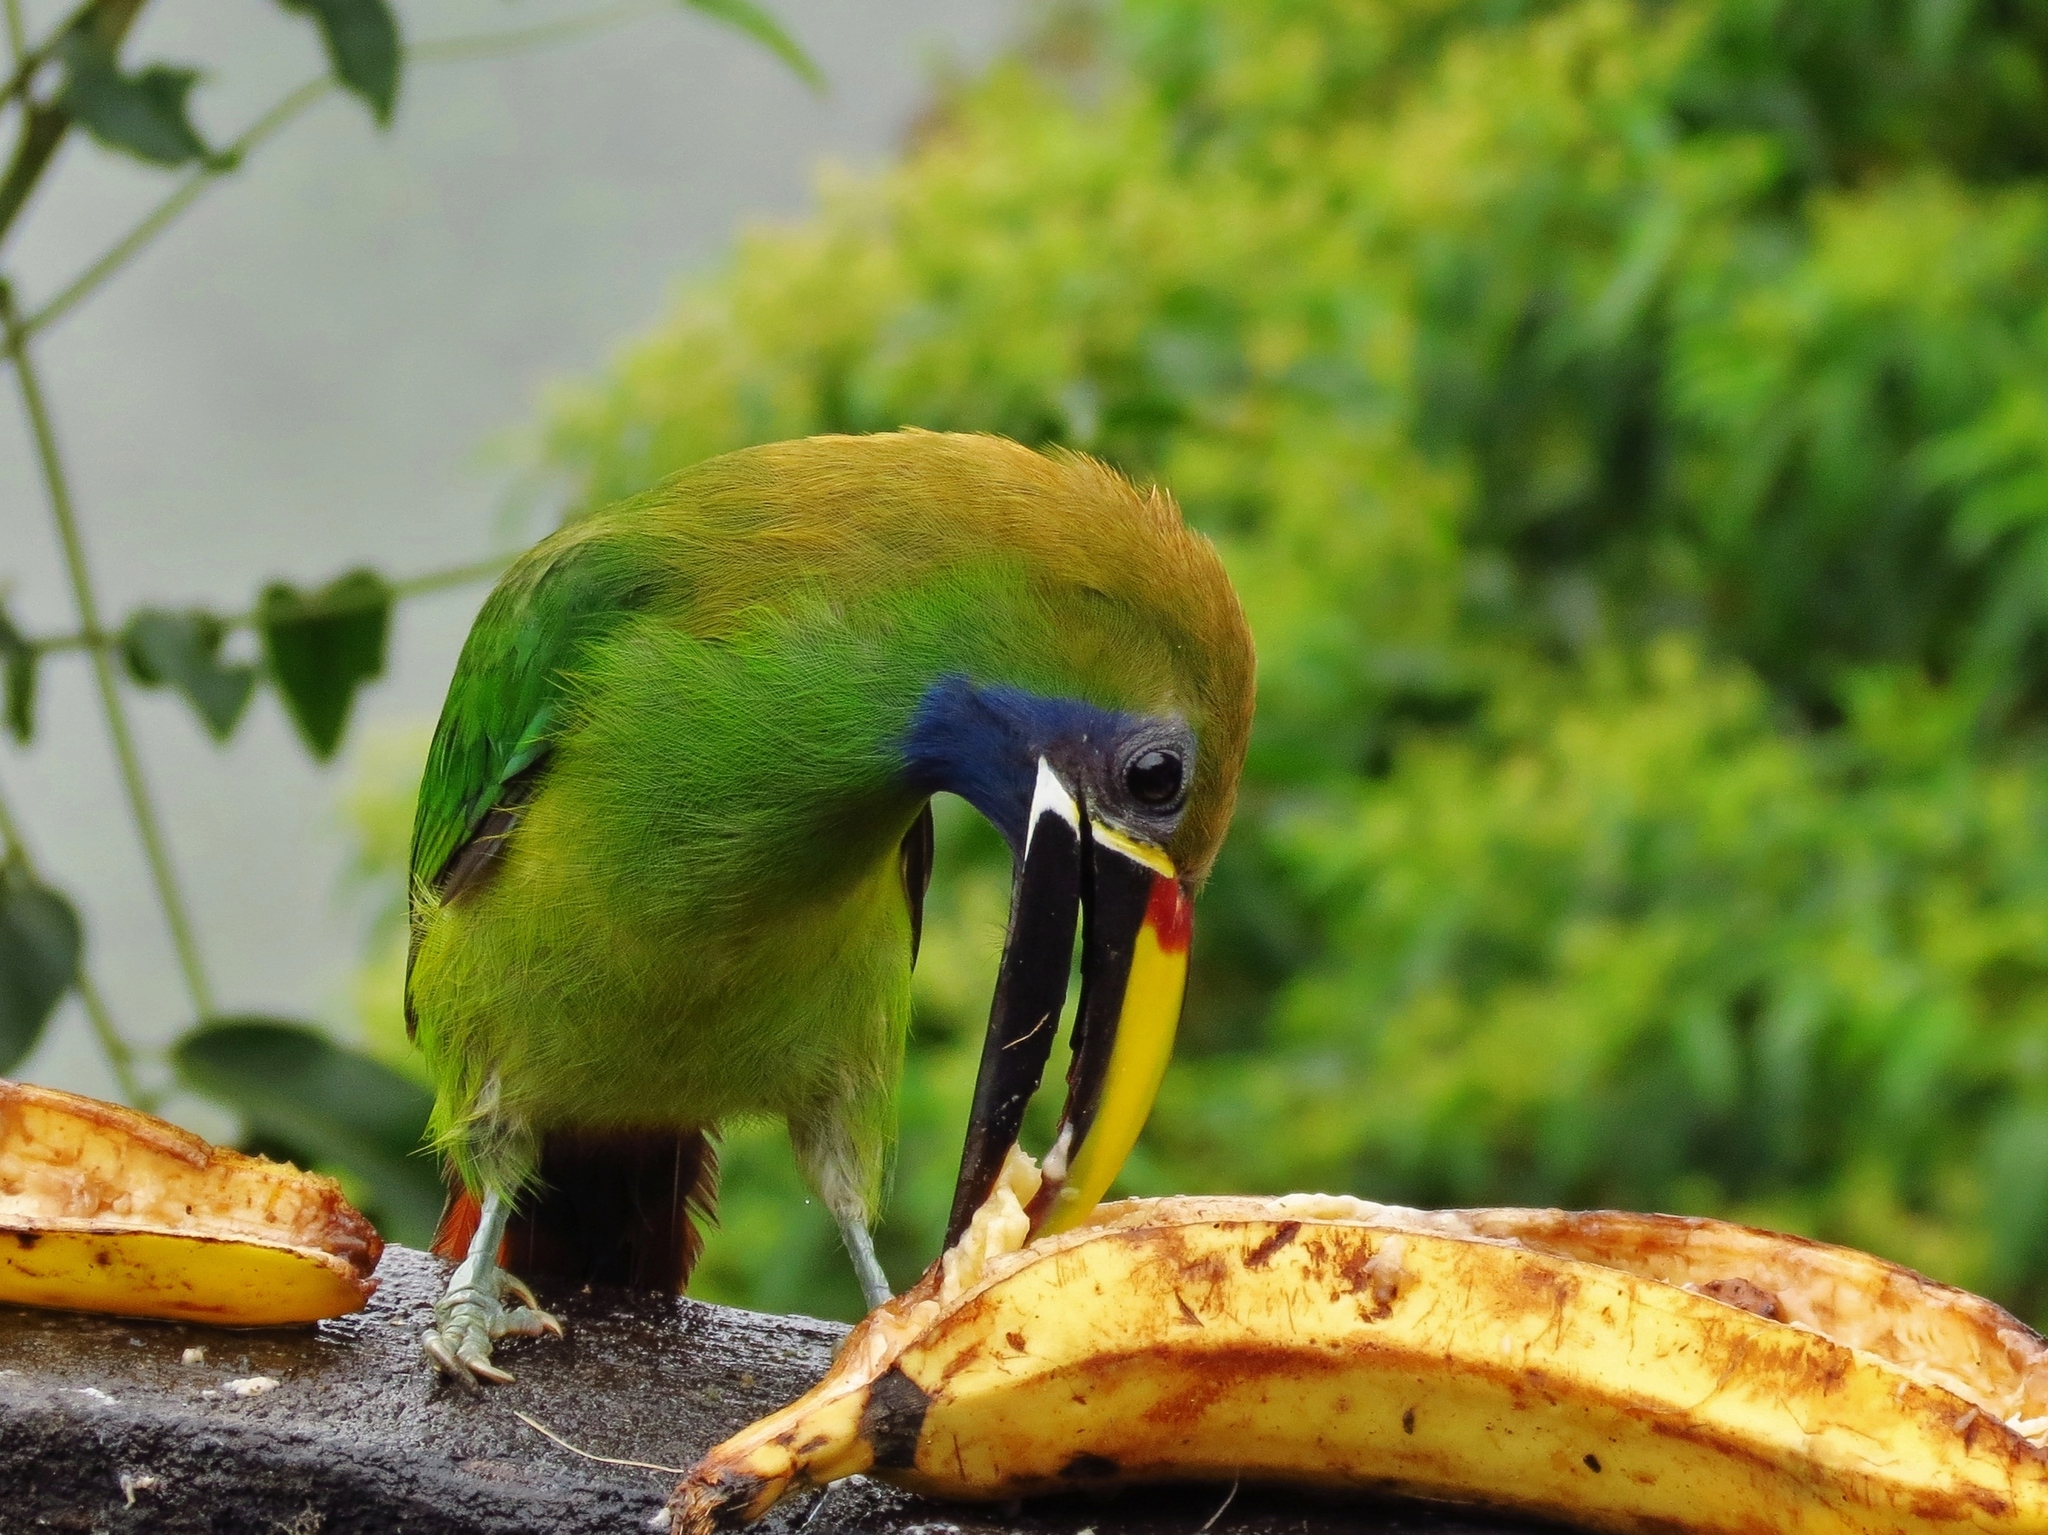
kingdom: Animalia
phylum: Chordata
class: Aves
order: Piciformes
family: Ramphastidae
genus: Aulacorhynchus
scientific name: Aulacorhynchus prasinus
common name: Emerald toucanet
